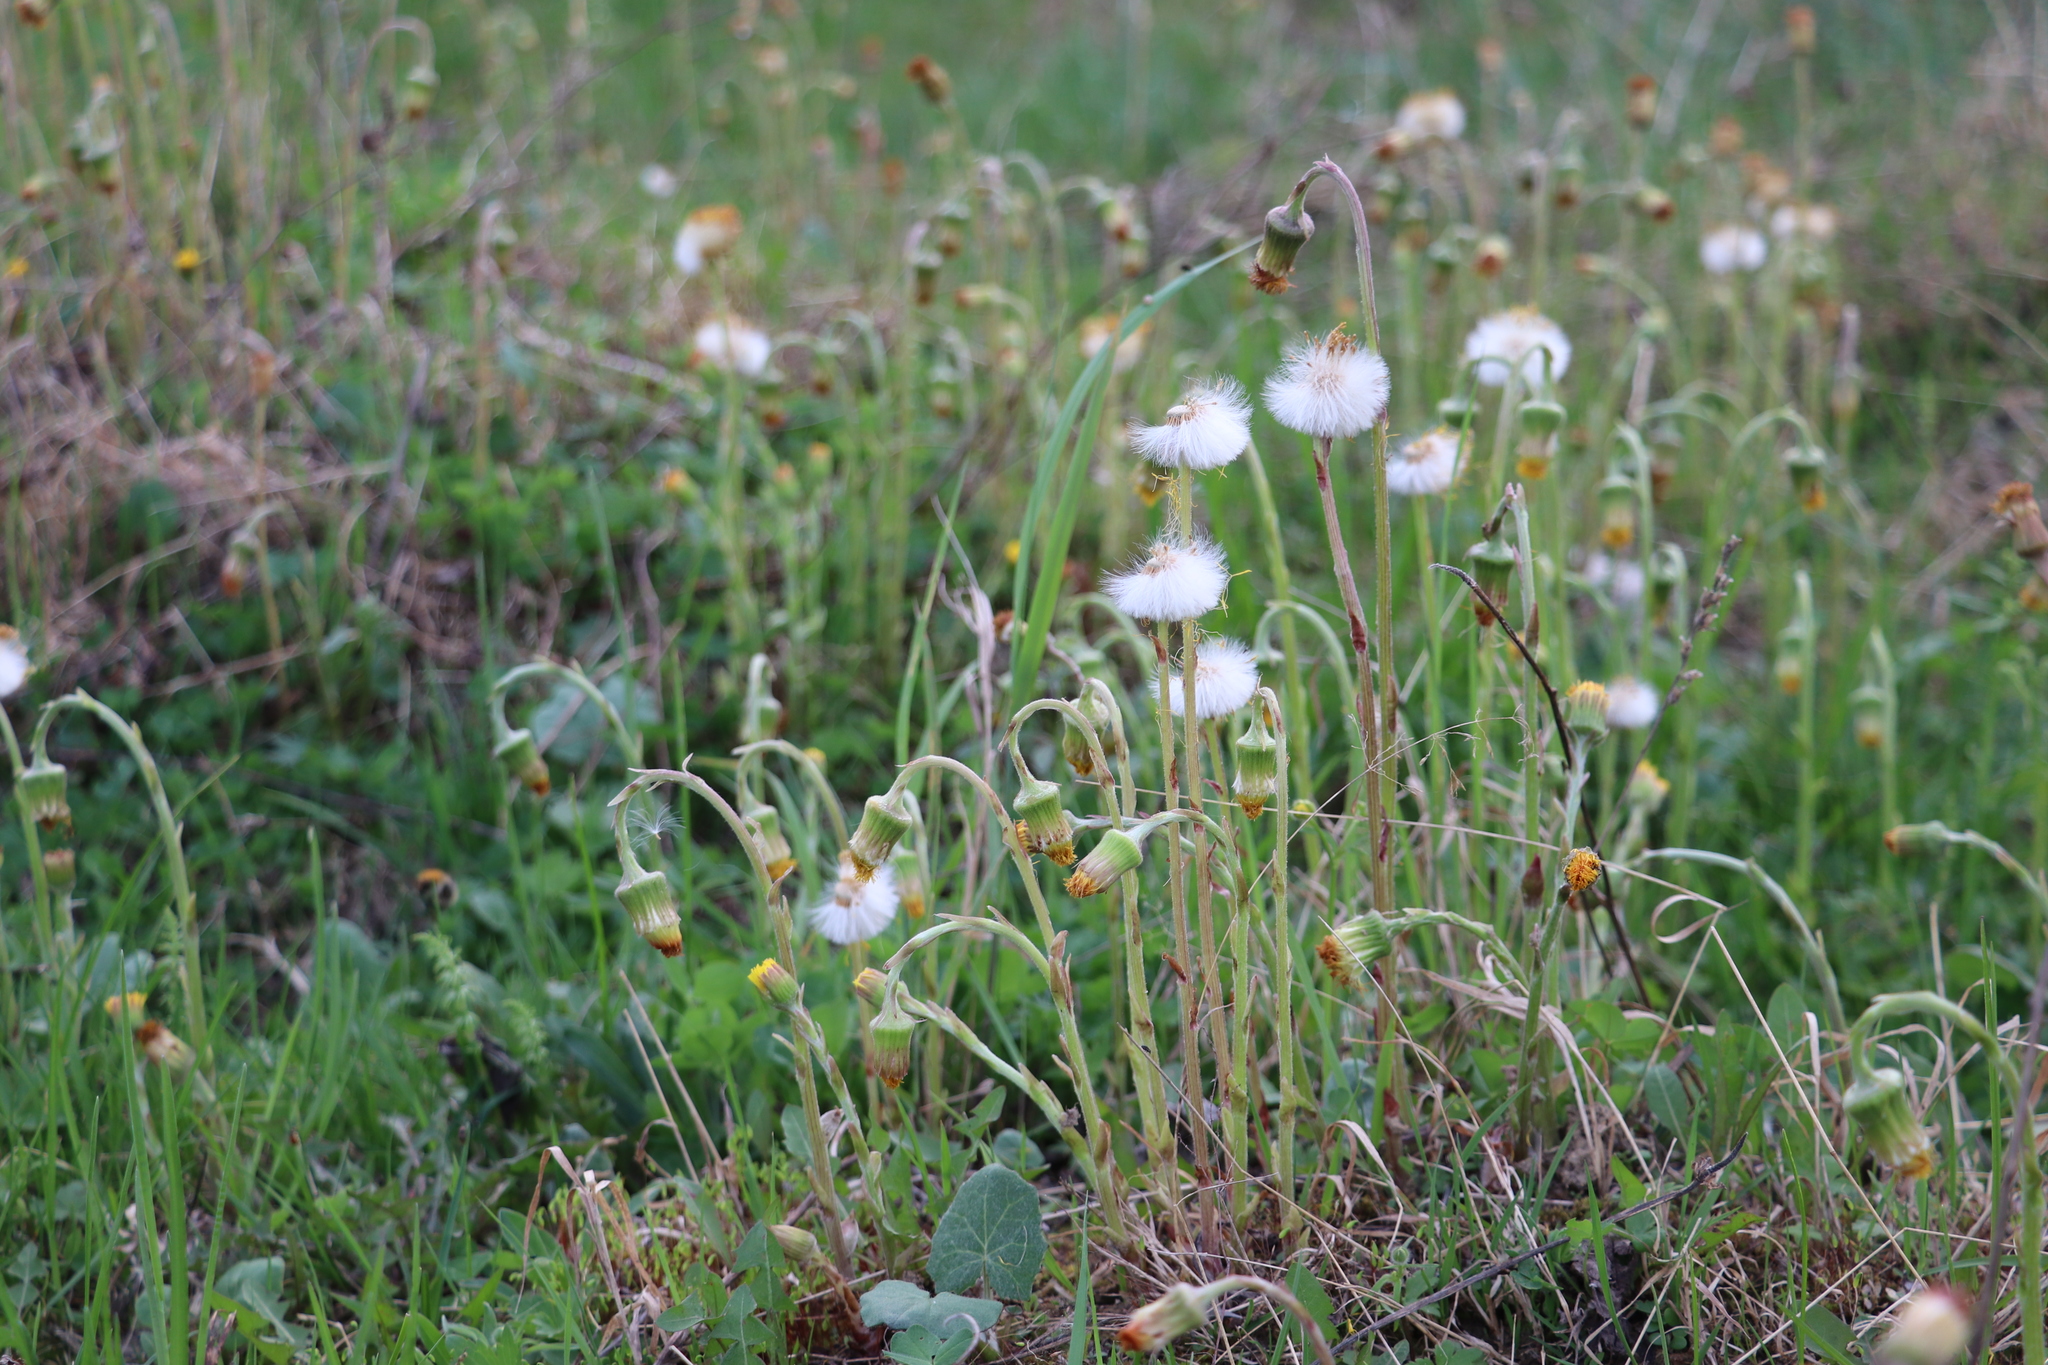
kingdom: Plantae
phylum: Tracheophyta
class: Magnoliopsida
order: Asterales
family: Asteraceae
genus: Tussilago
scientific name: Tussilago farfara
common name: Coltsfoot
